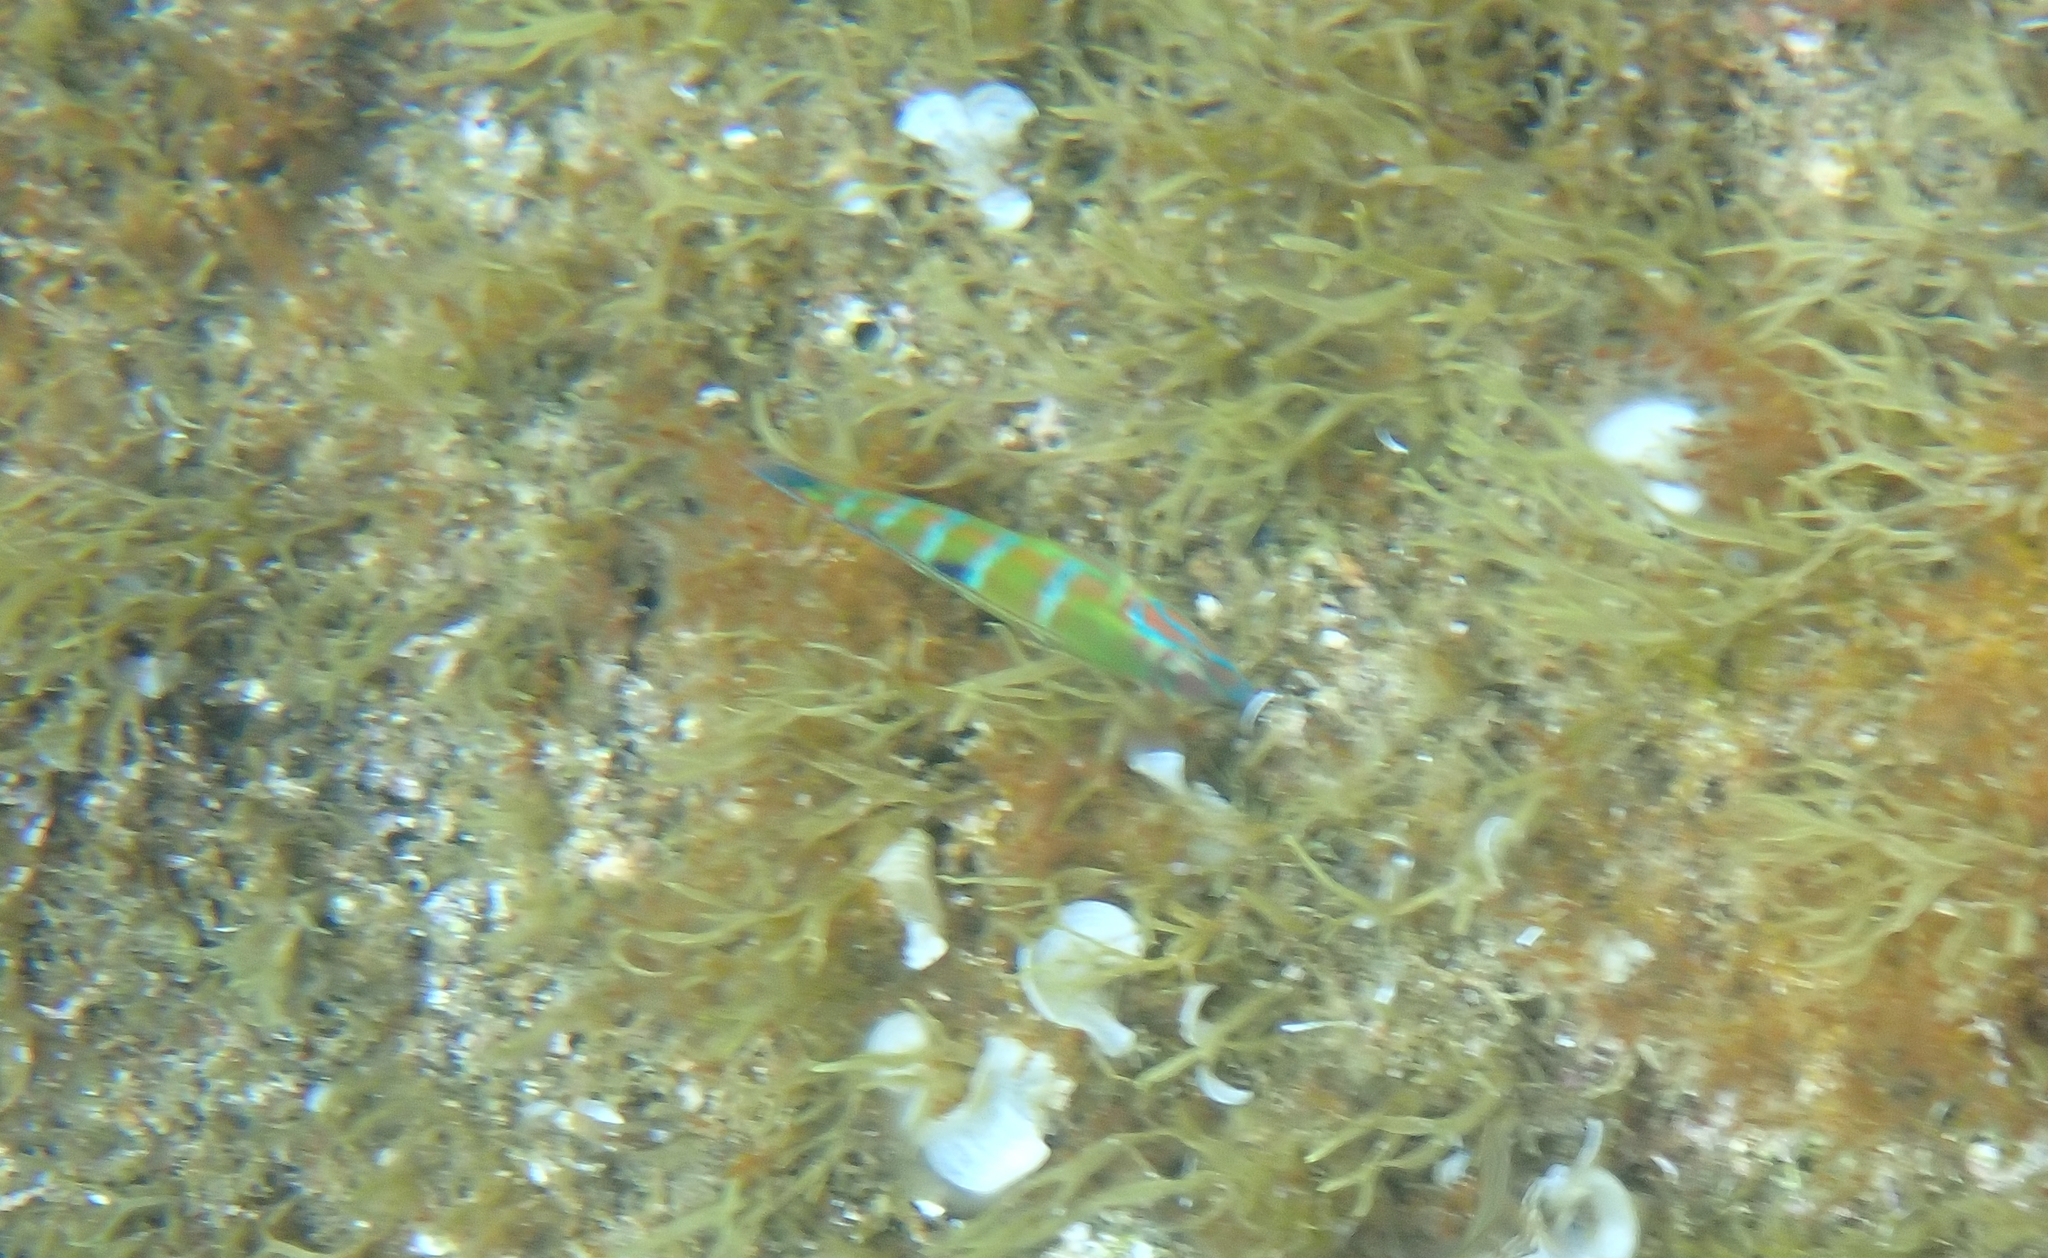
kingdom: Animalia
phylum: Chordata
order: Perciformes
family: Labridae
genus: Thalassoma
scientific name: Thalassoma pavo
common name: Ornate wrasse
